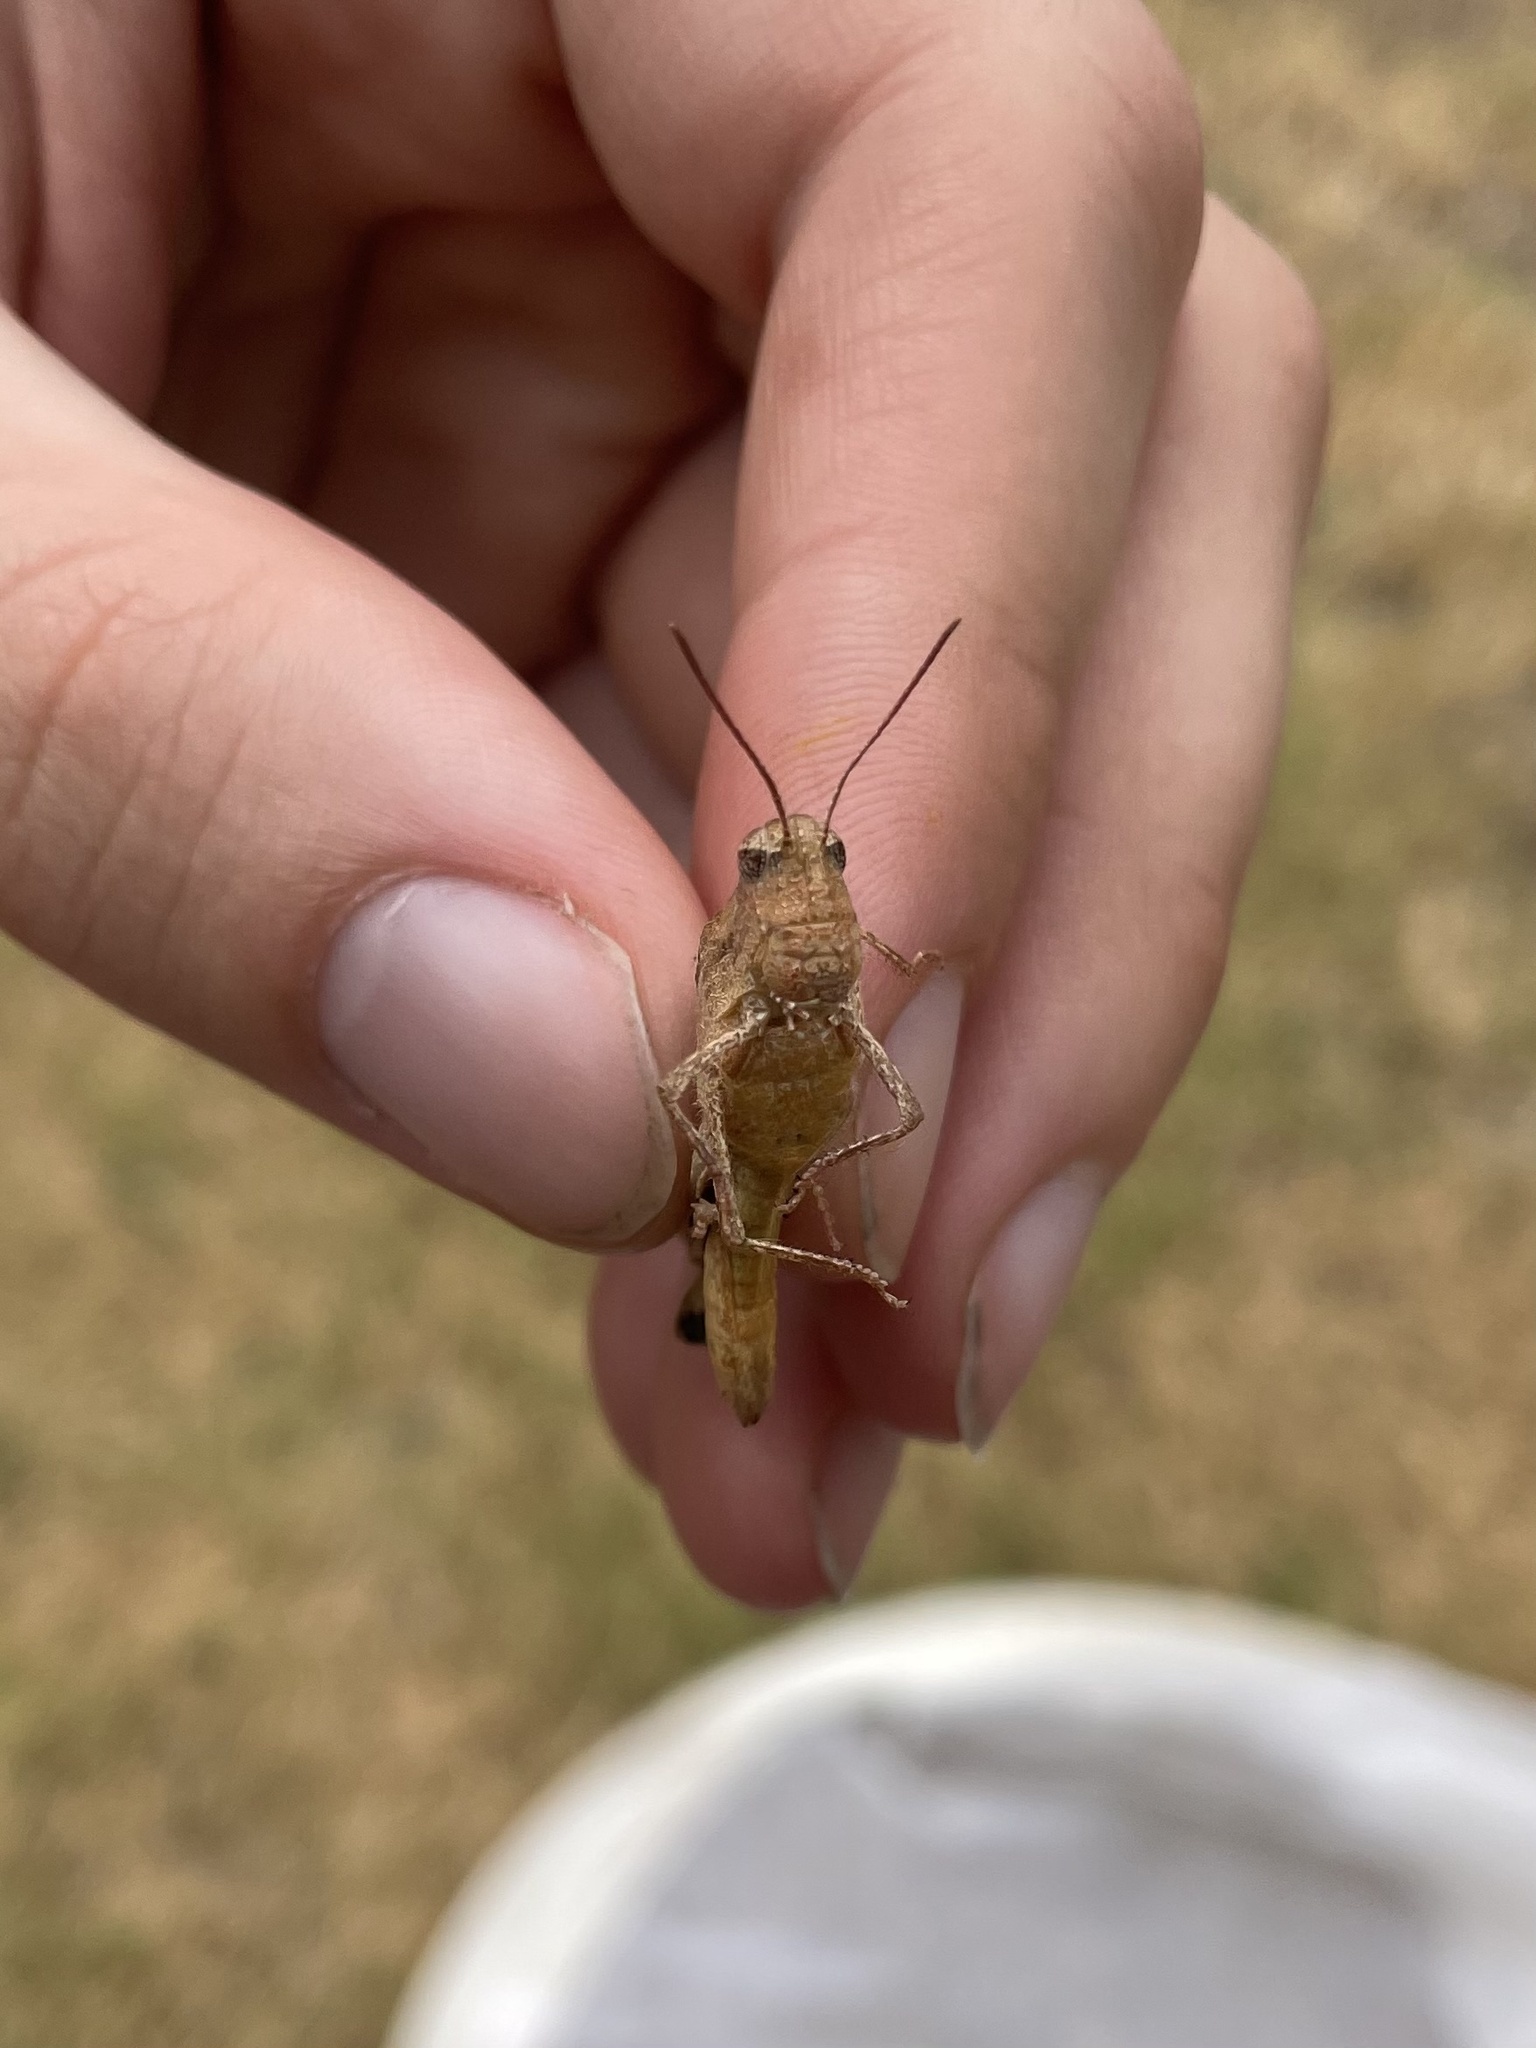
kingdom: Animalia
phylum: Arthropoda
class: Insecta
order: Orthoptera
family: Acrididae
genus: Chortophaga
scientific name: Chortophaga viridifasciata
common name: Green-striped grasshopper
